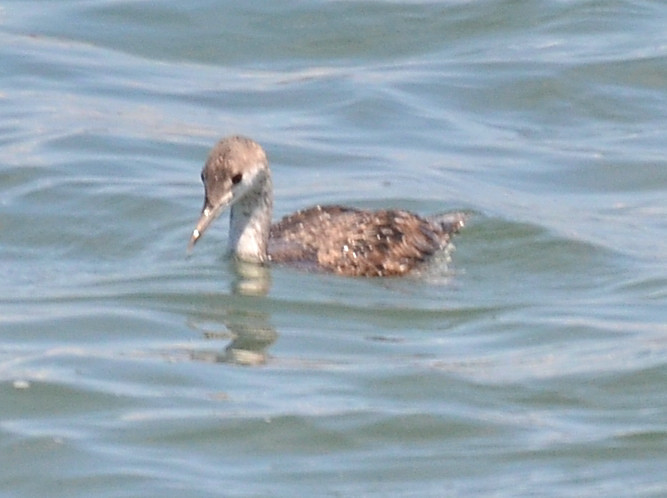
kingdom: Animalia
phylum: Chordata
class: Aves
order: Gaviiformes
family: Gaviidae
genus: Gavia
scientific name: Gavia stellata
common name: Red-throated loon
